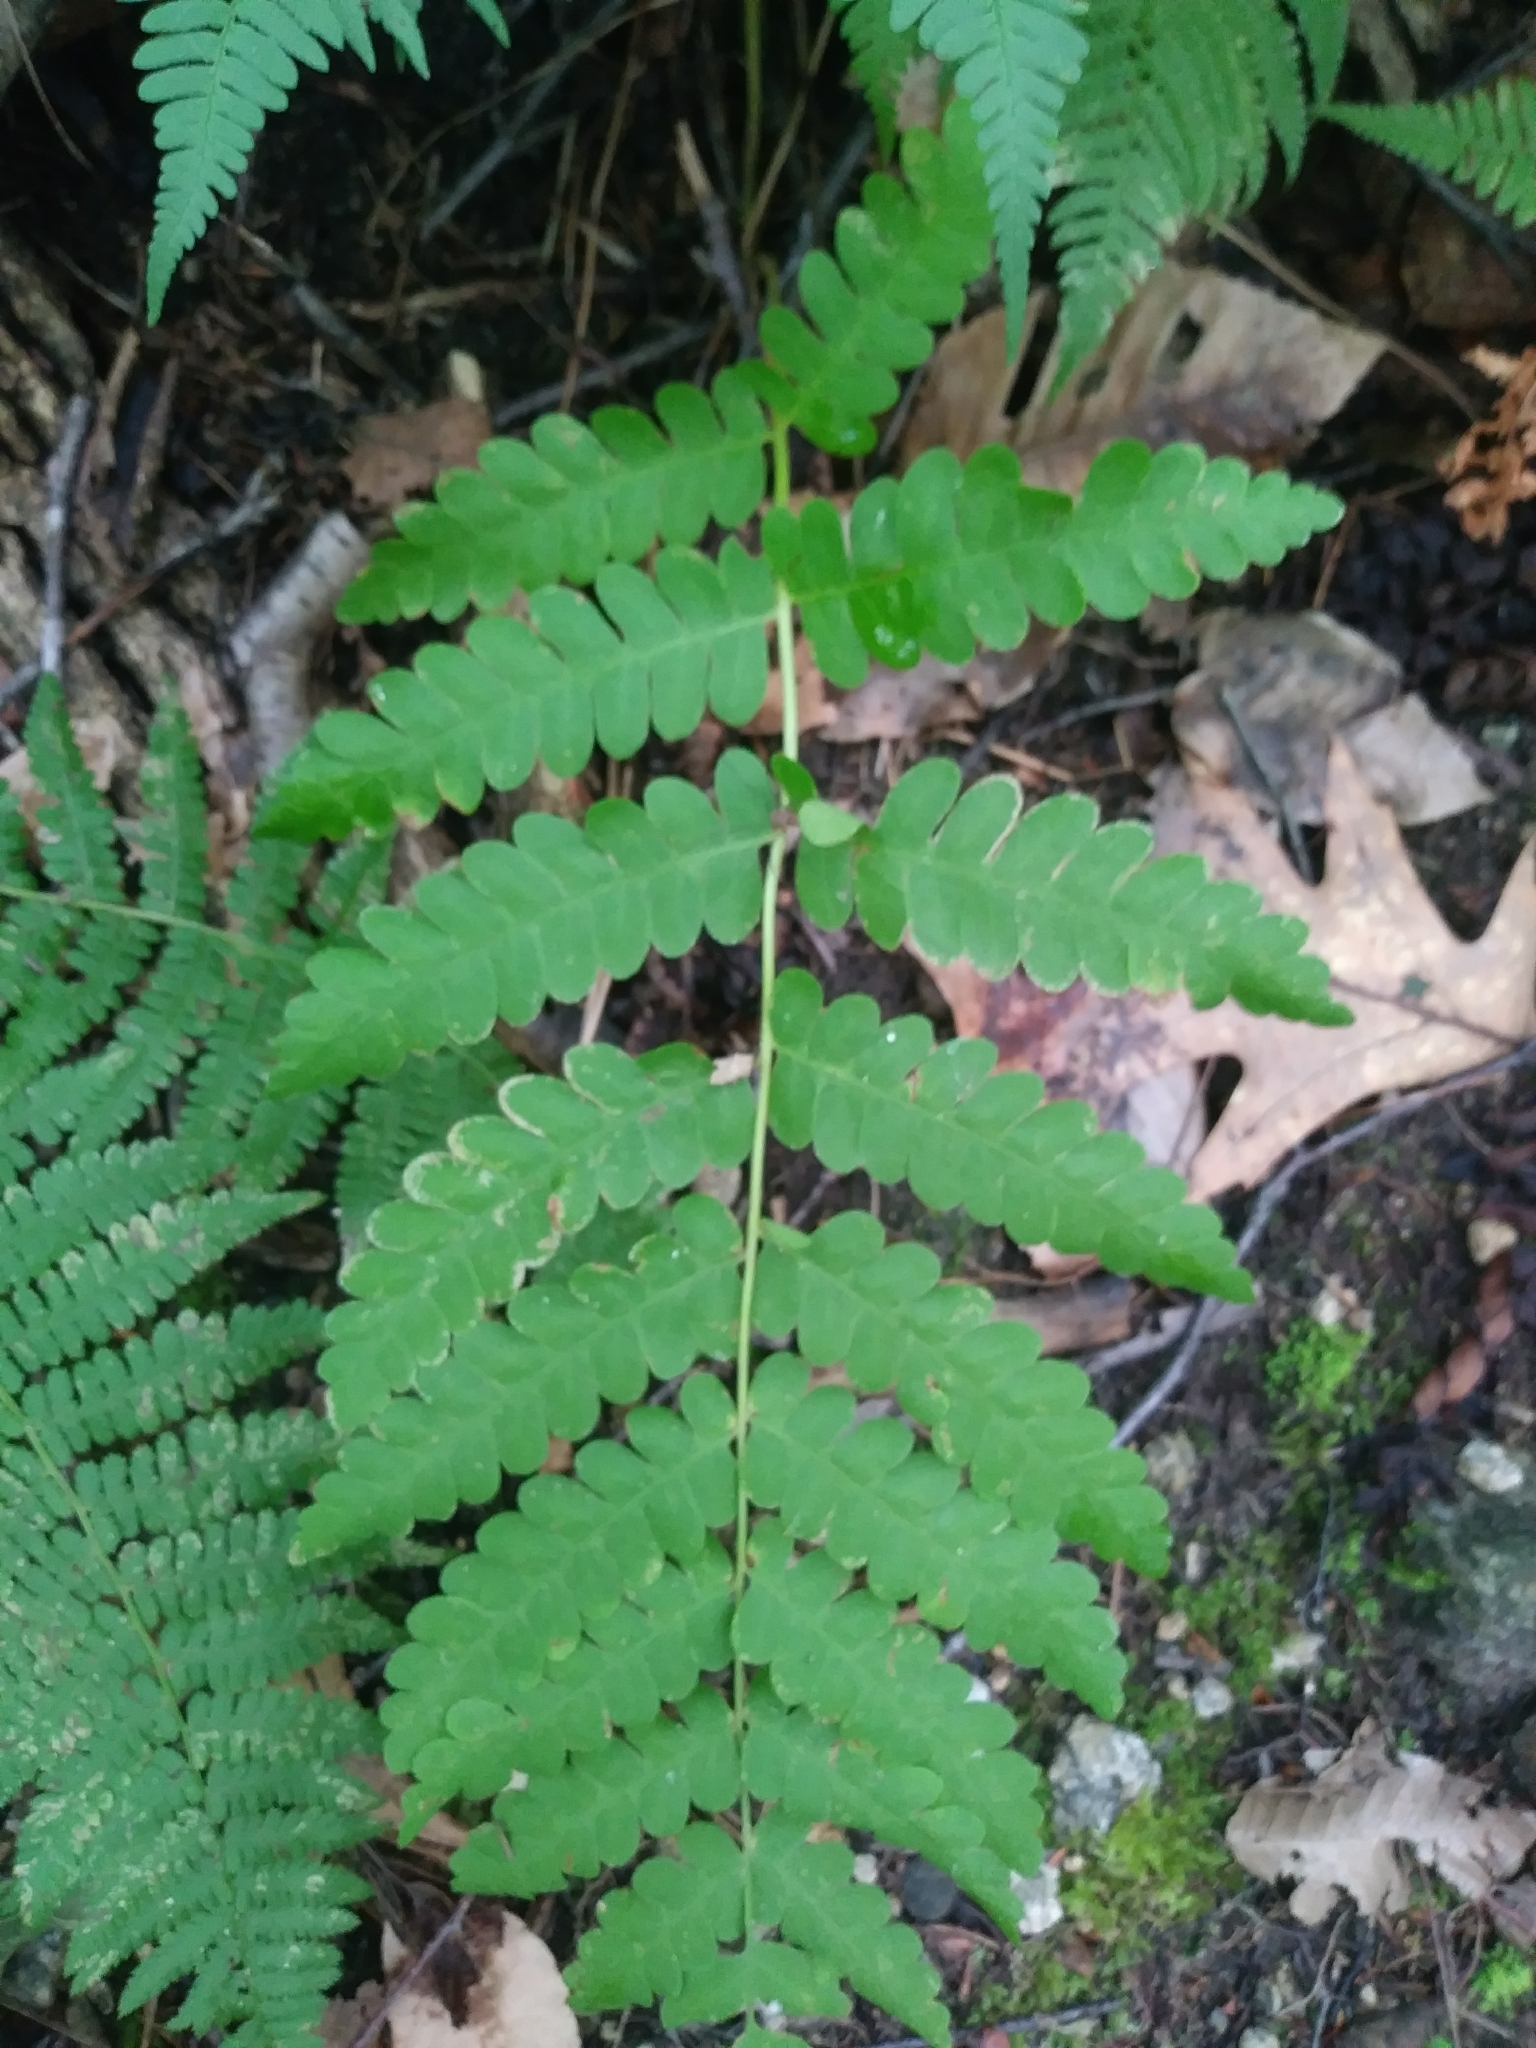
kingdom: Plantae
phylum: Tracheophyta
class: Polypodiopsida
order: Osmundales
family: Osmundaceae
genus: Claytosmunda
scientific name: Claytosmunda claytoniana
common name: Clayton's fern
